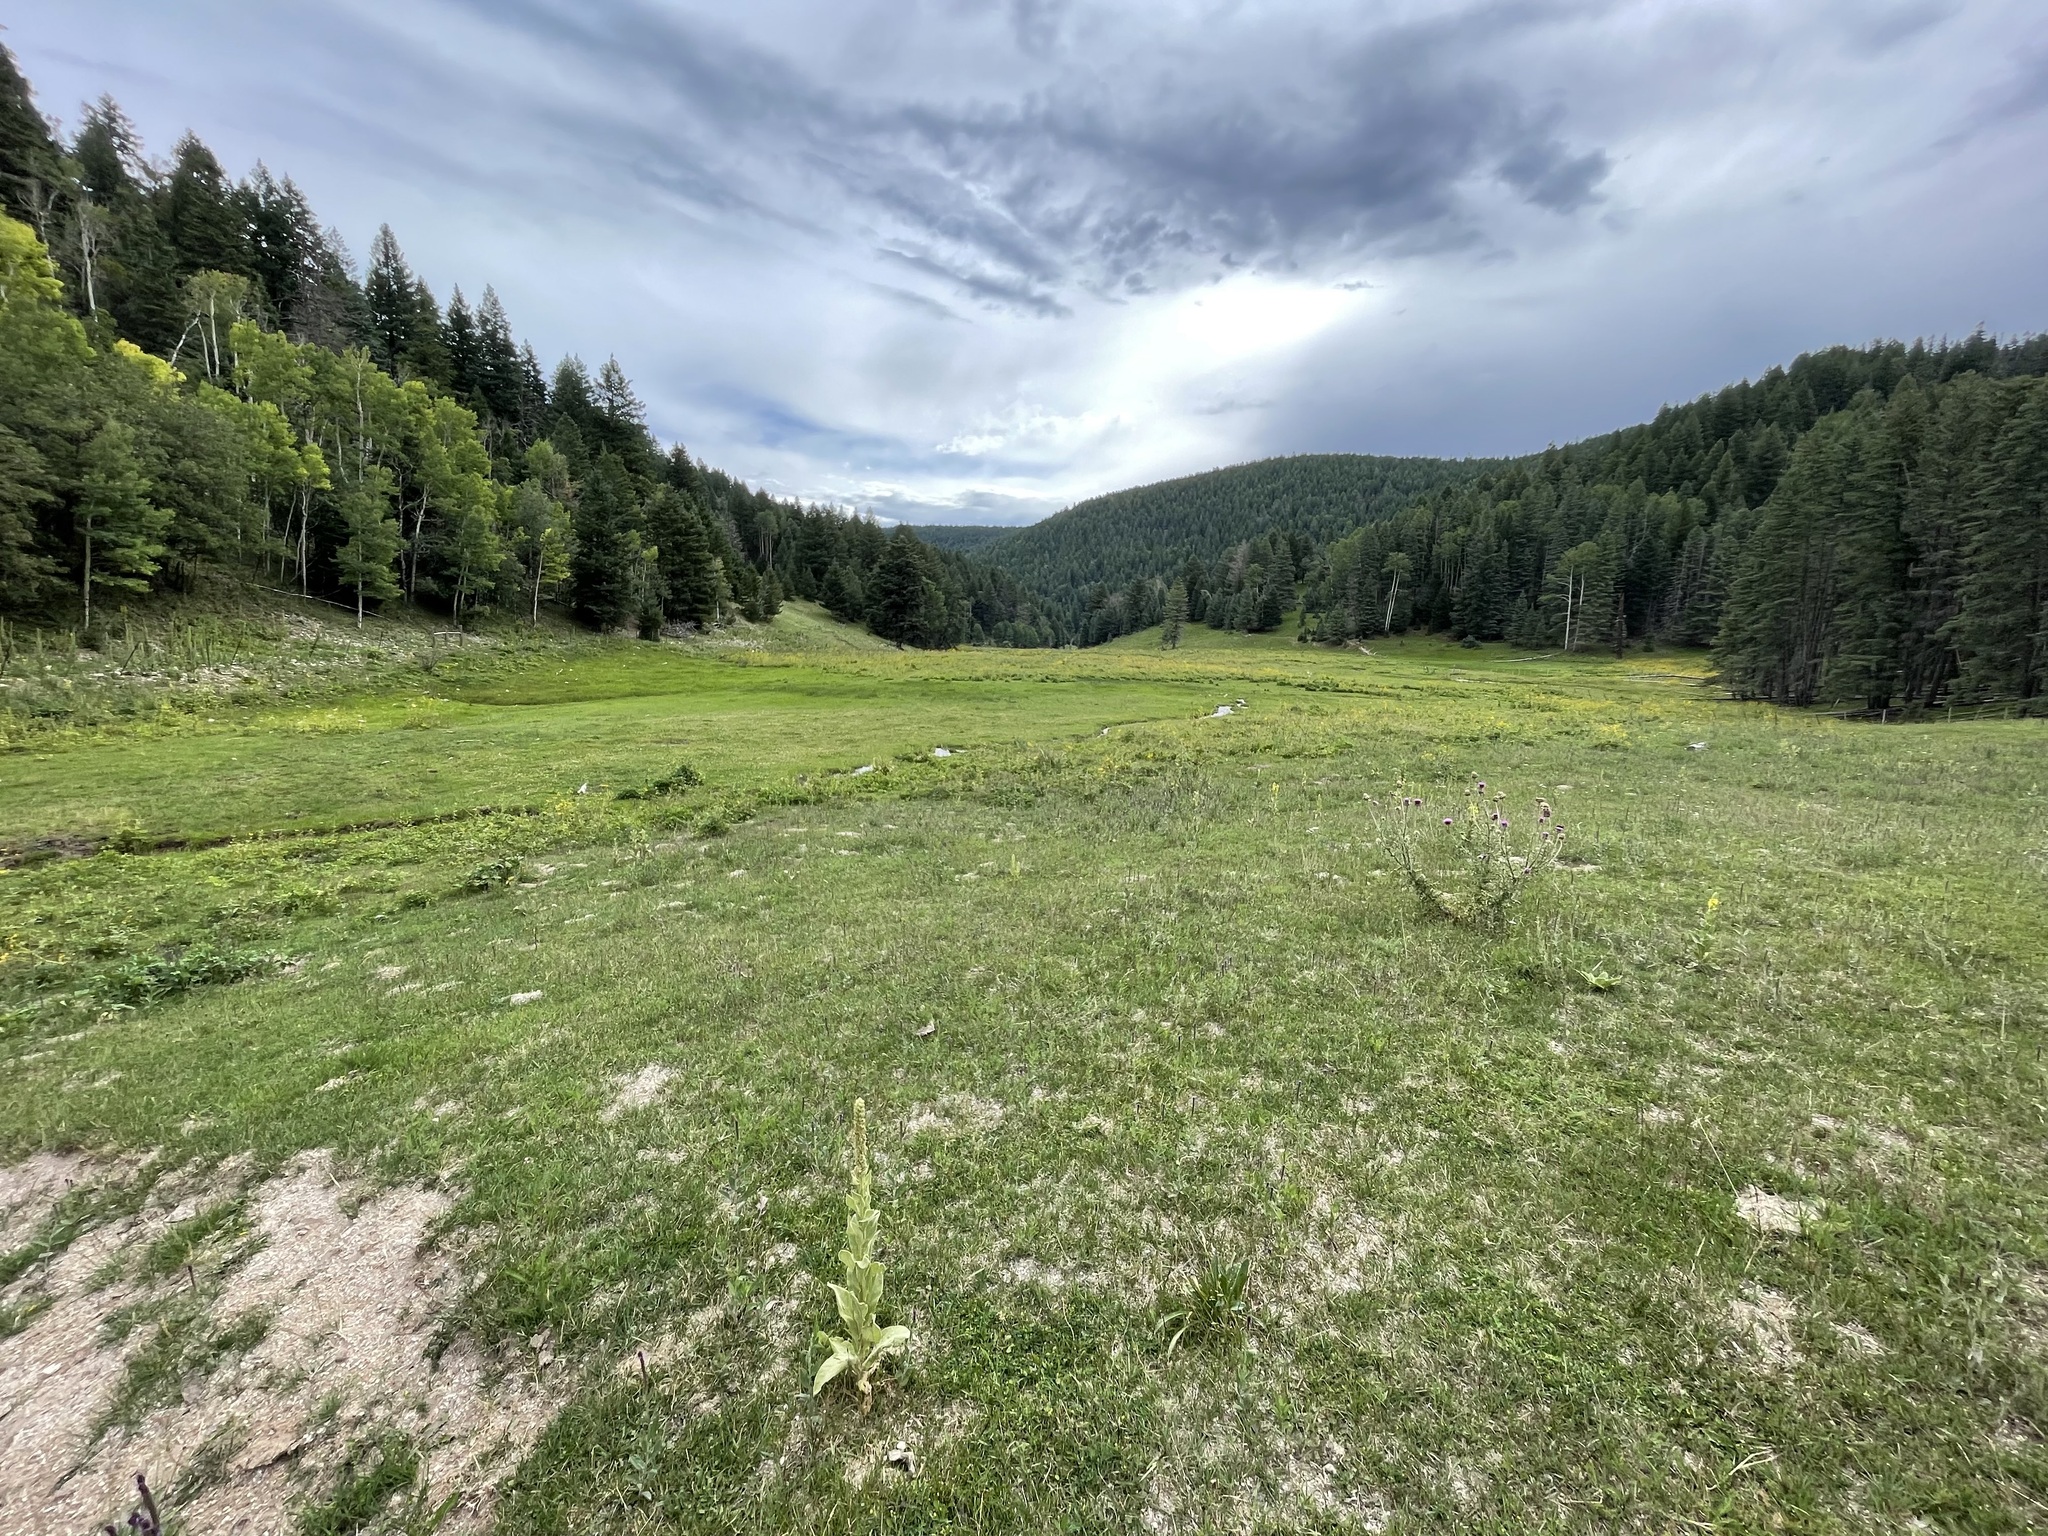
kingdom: Plantae
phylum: Tracheophyta
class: Magnoliopsida
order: Lamiales
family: Scrophulariaceae
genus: Verbascum
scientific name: Verbascum thapsus
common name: Common mullein
